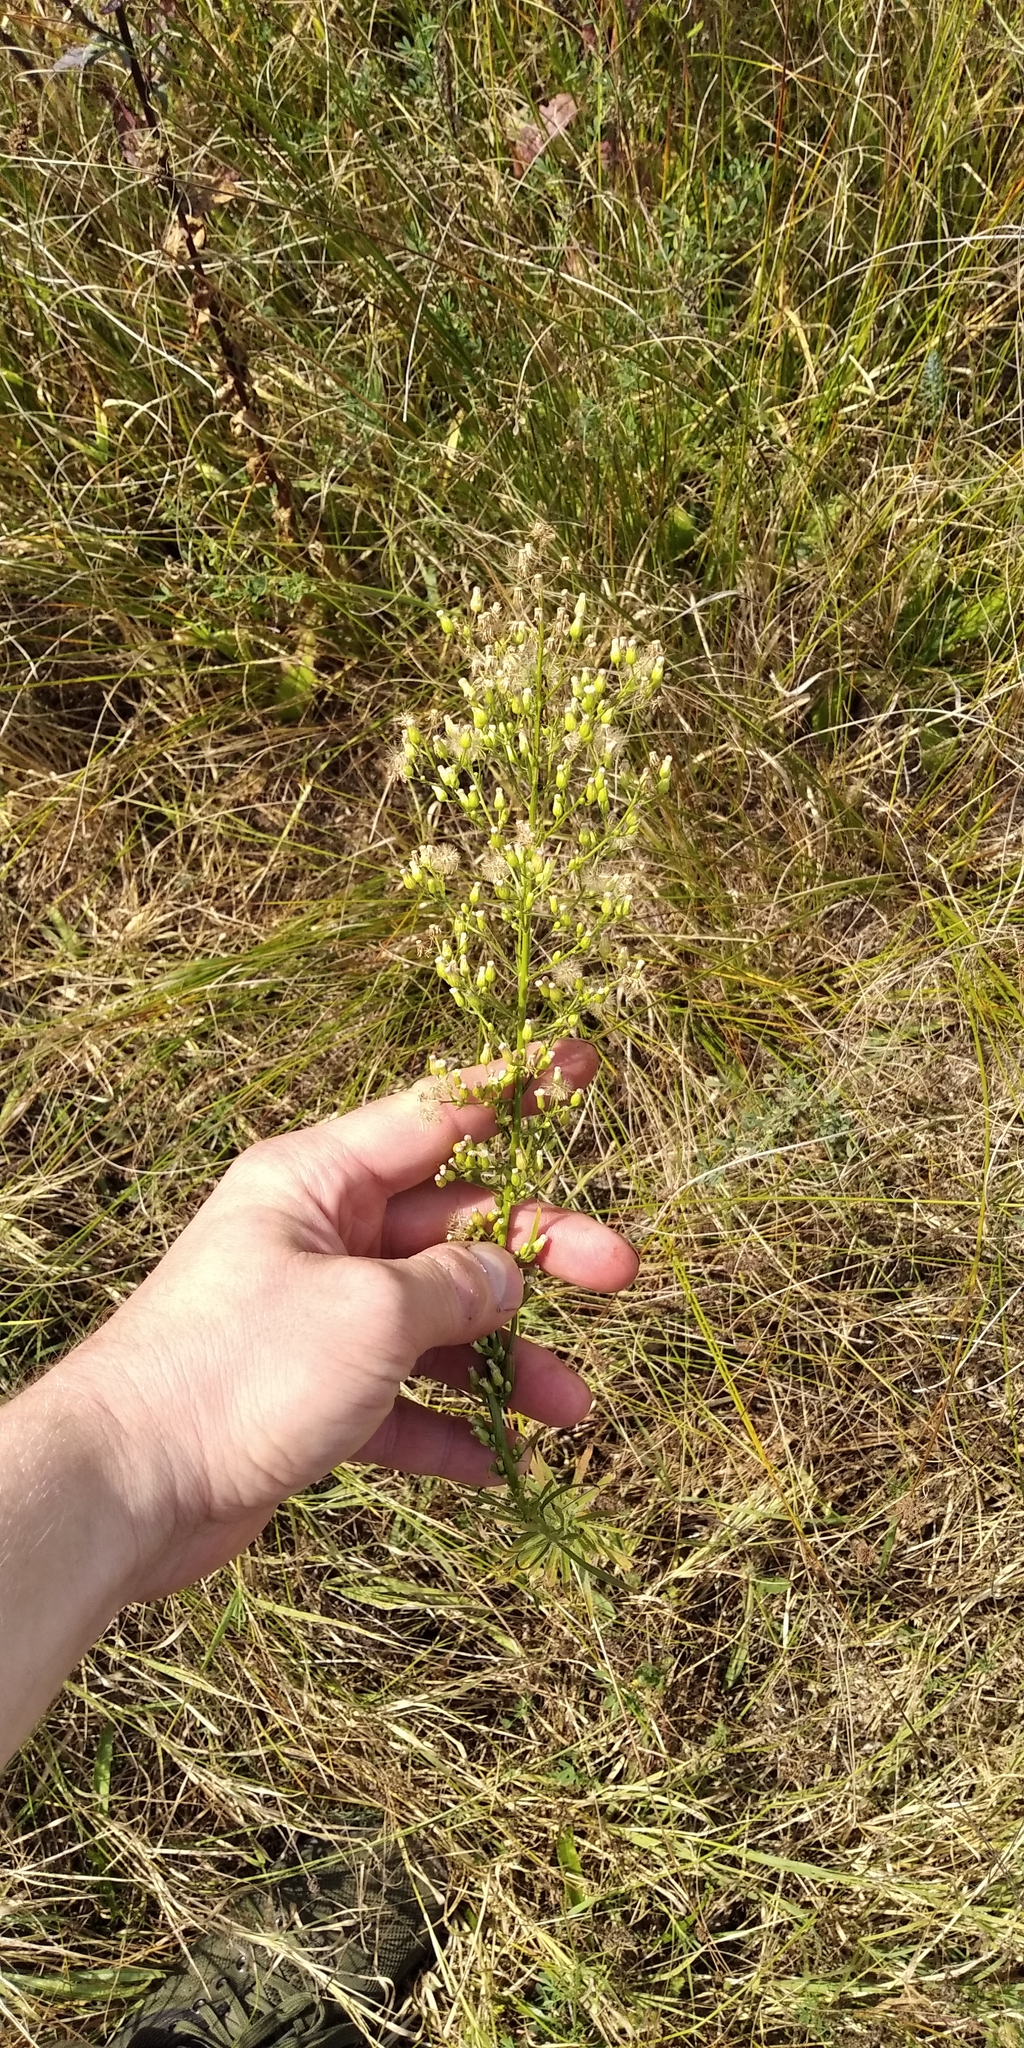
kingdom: Plantae
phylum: Tracheophyta
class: Magnoliopsida
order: Asterales
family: Asteraceae
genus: Erigeron
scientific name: Erigeron canadensis
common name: Canadian fleabane
